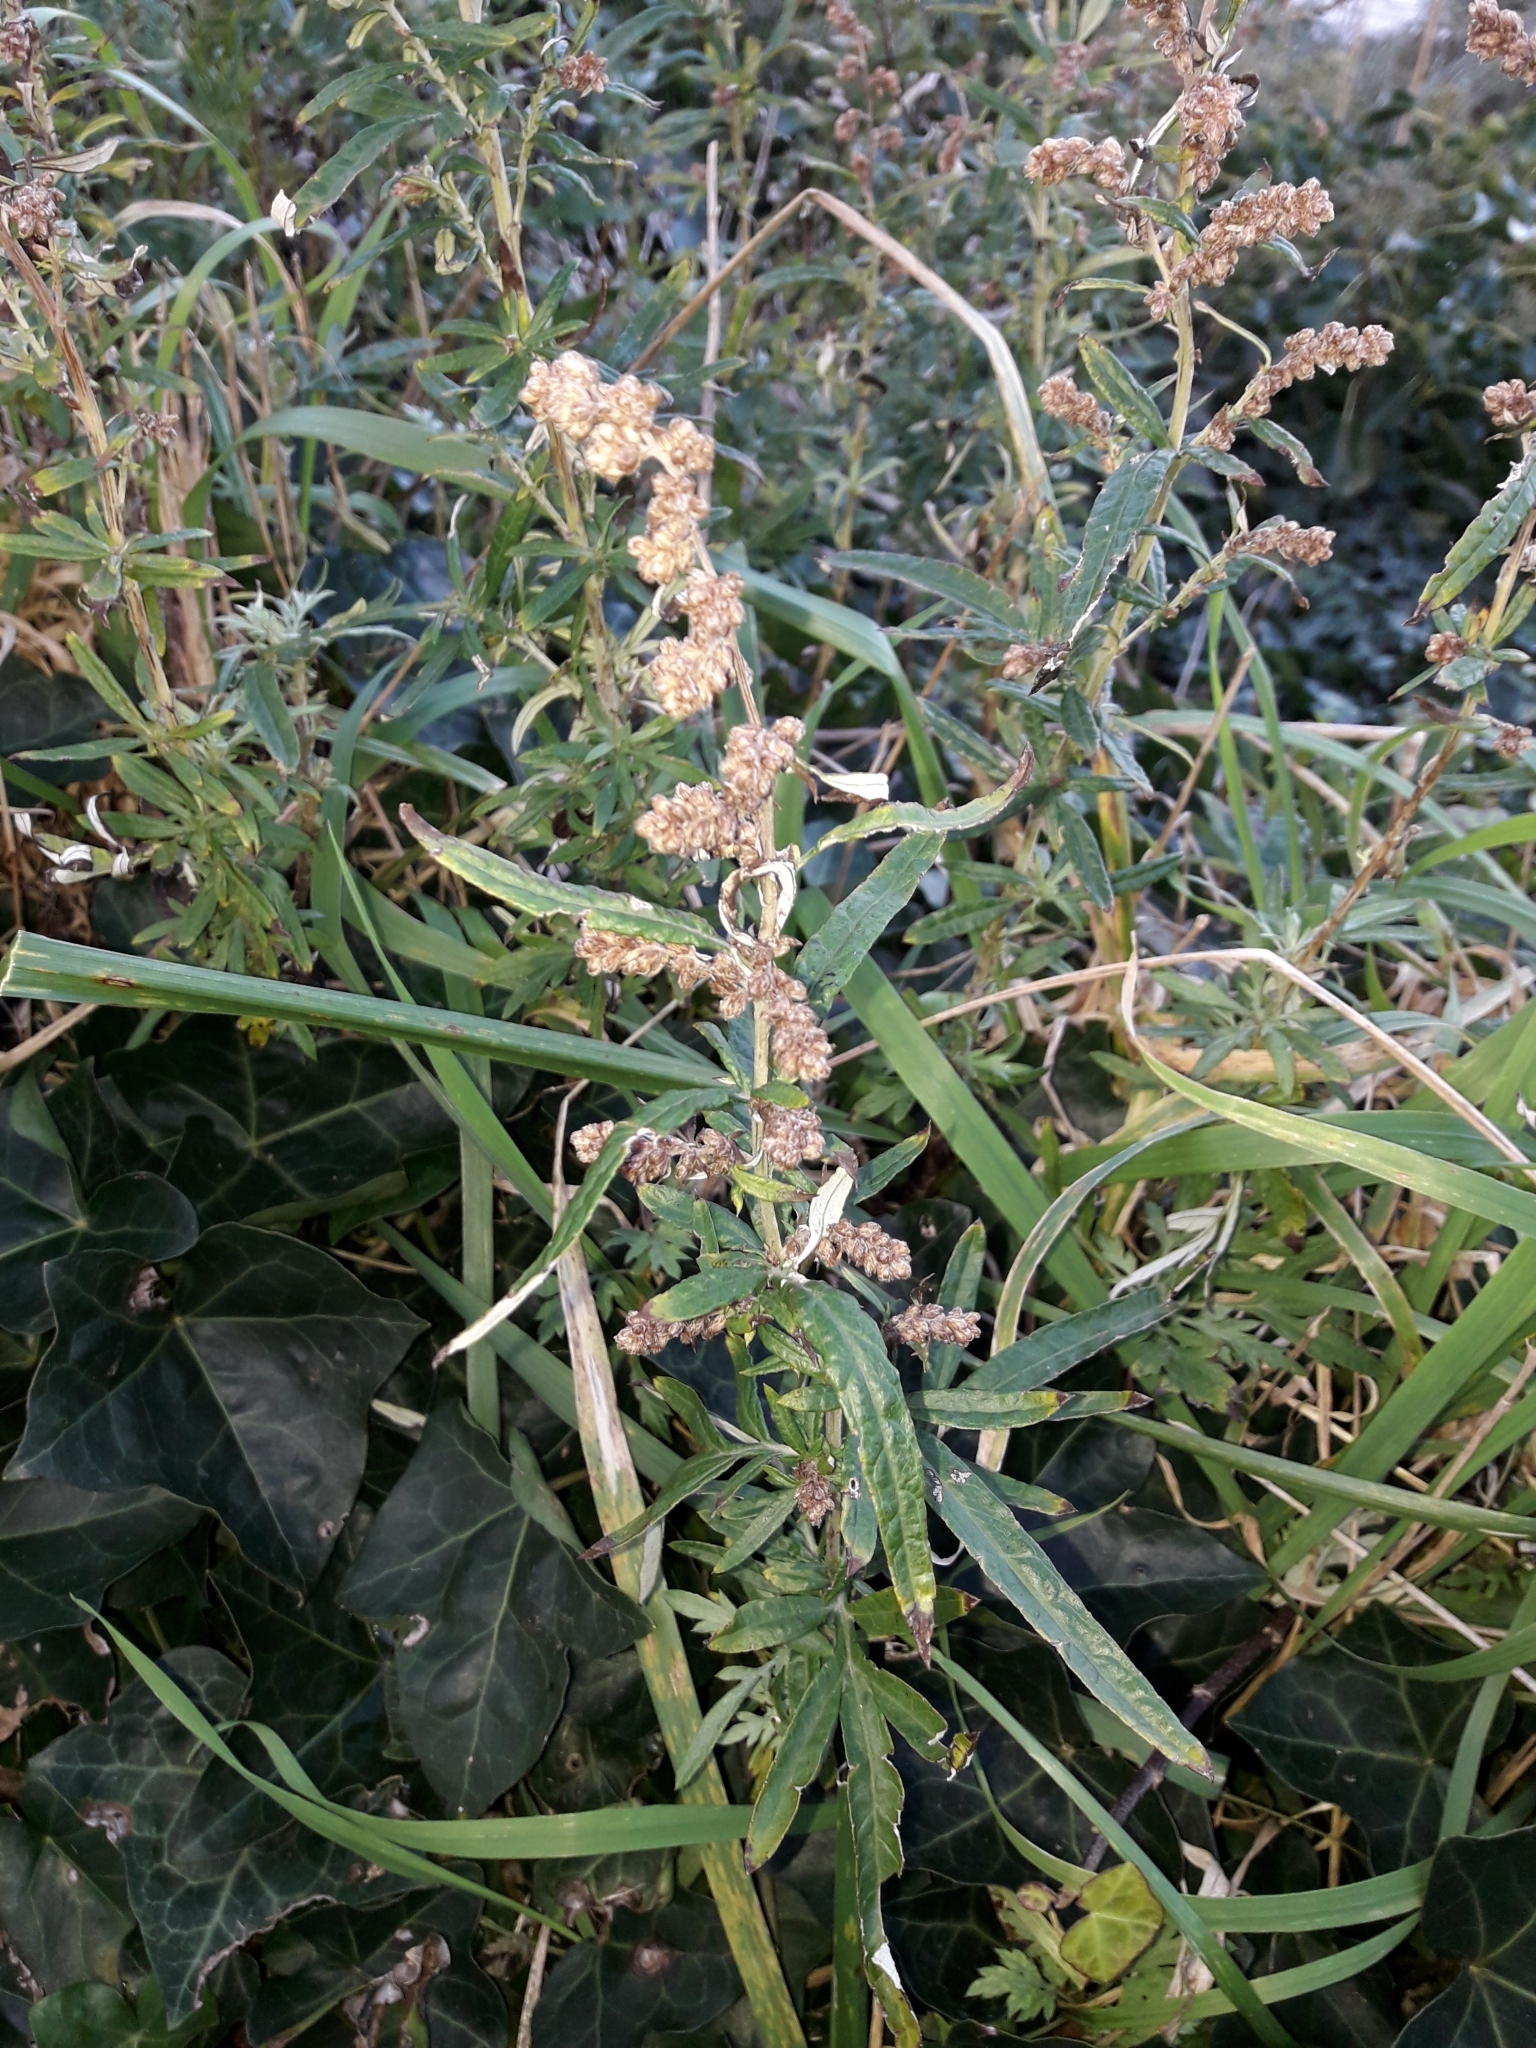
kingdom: Plantae
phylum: Tracheophyta
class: Magnoliopsida
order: Asterales
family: Asteraceae
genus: Artemisia
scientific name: Artemisia verlotiorum
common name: Chinese mugwort
